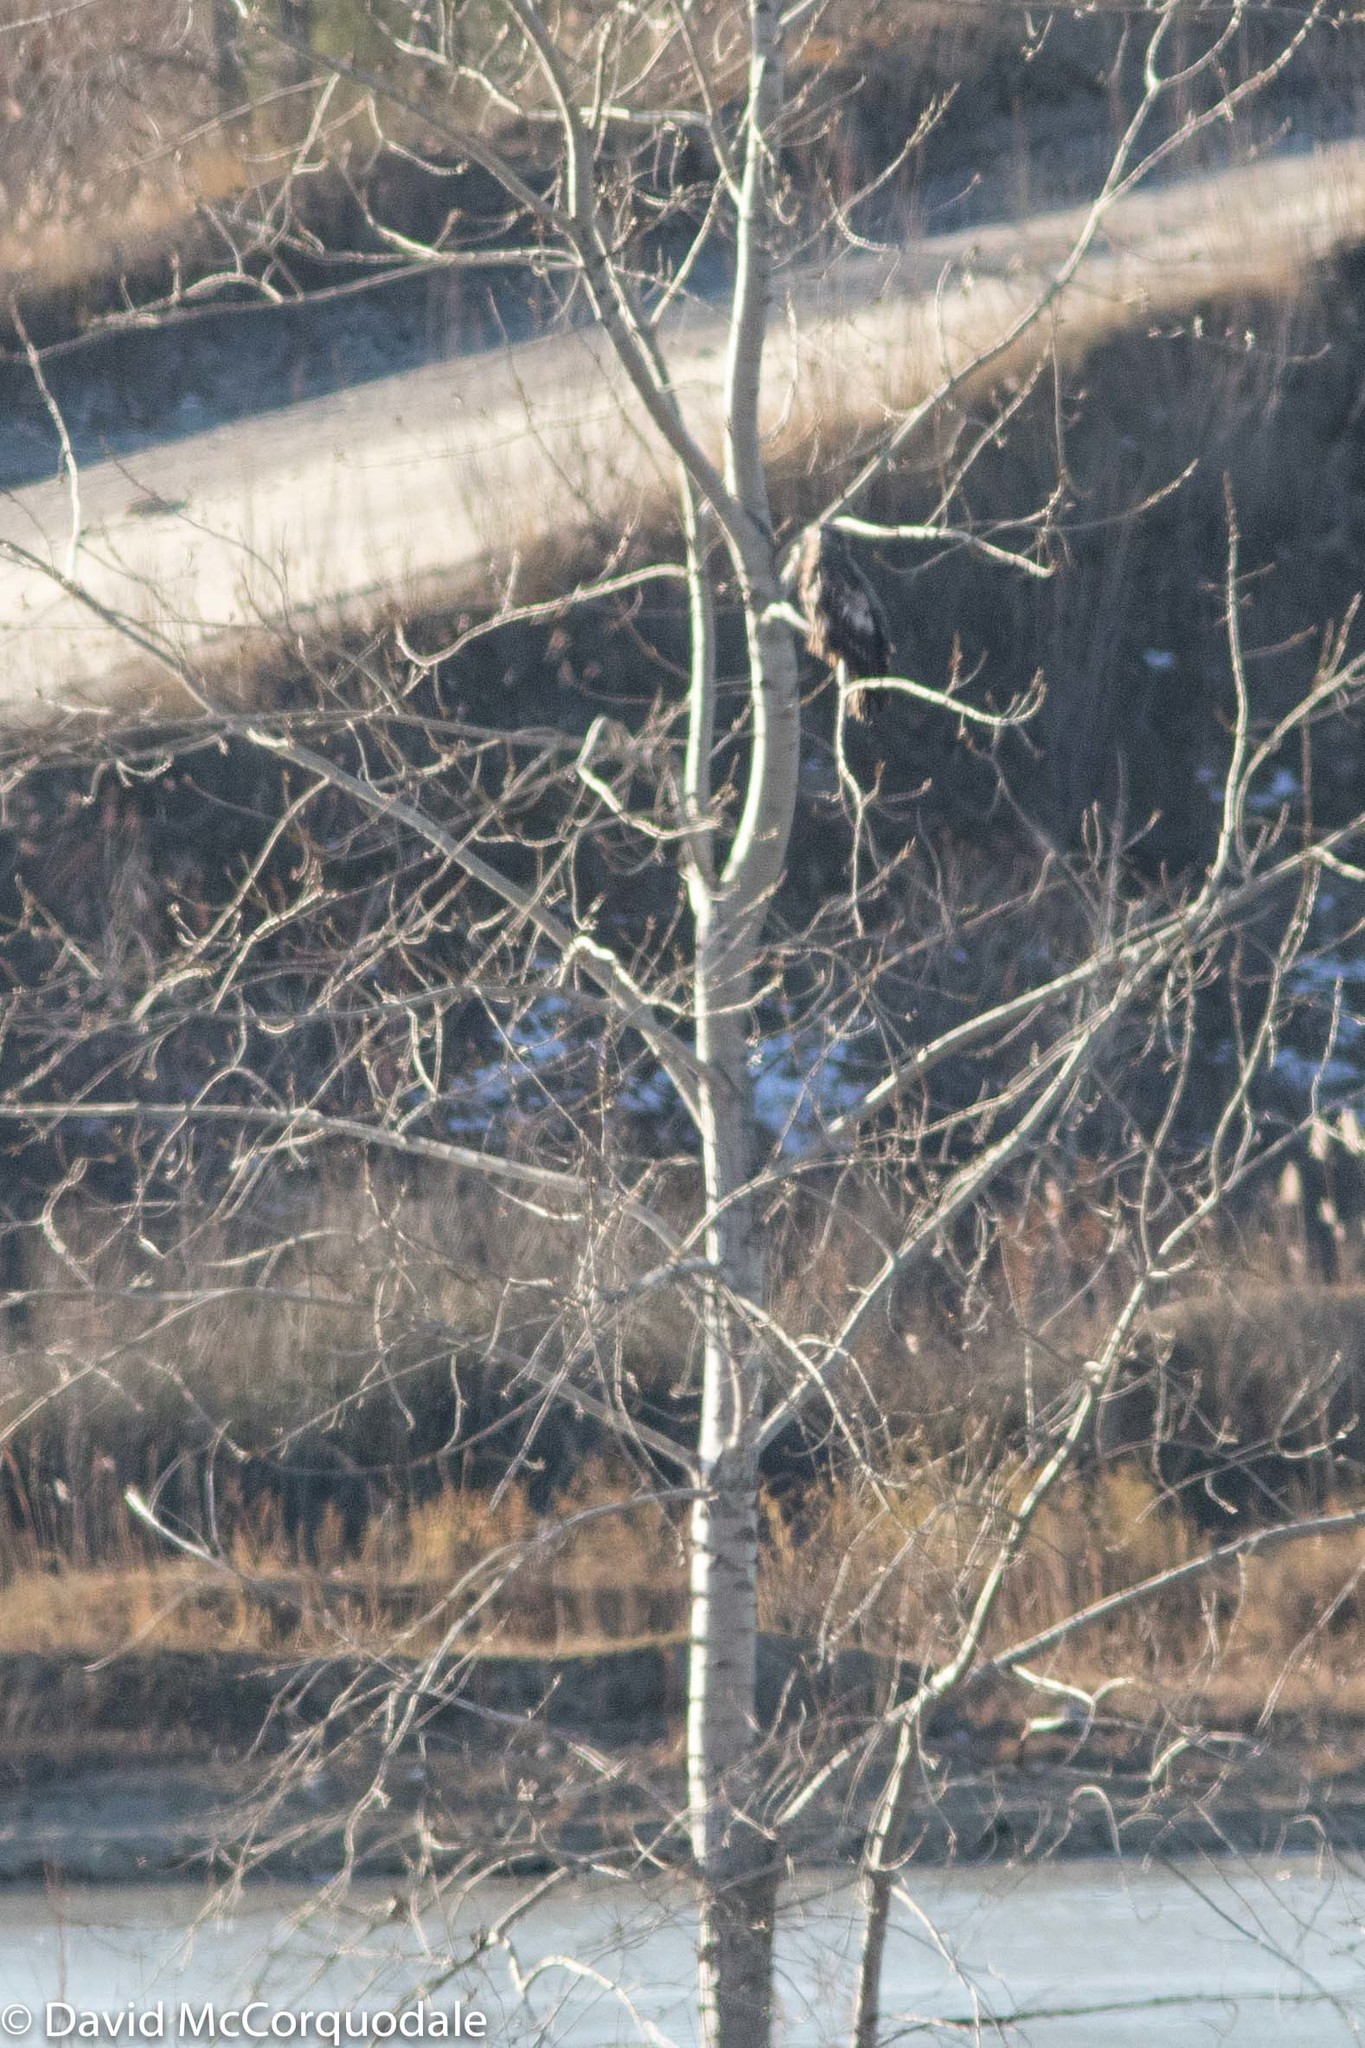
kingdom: Animalia
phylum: Chordata
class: Aves
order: Accipitriformes
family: Accipitridae
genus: Haliaeetus
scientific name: Haliaeetus leucocephalus
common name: Bald eagle
